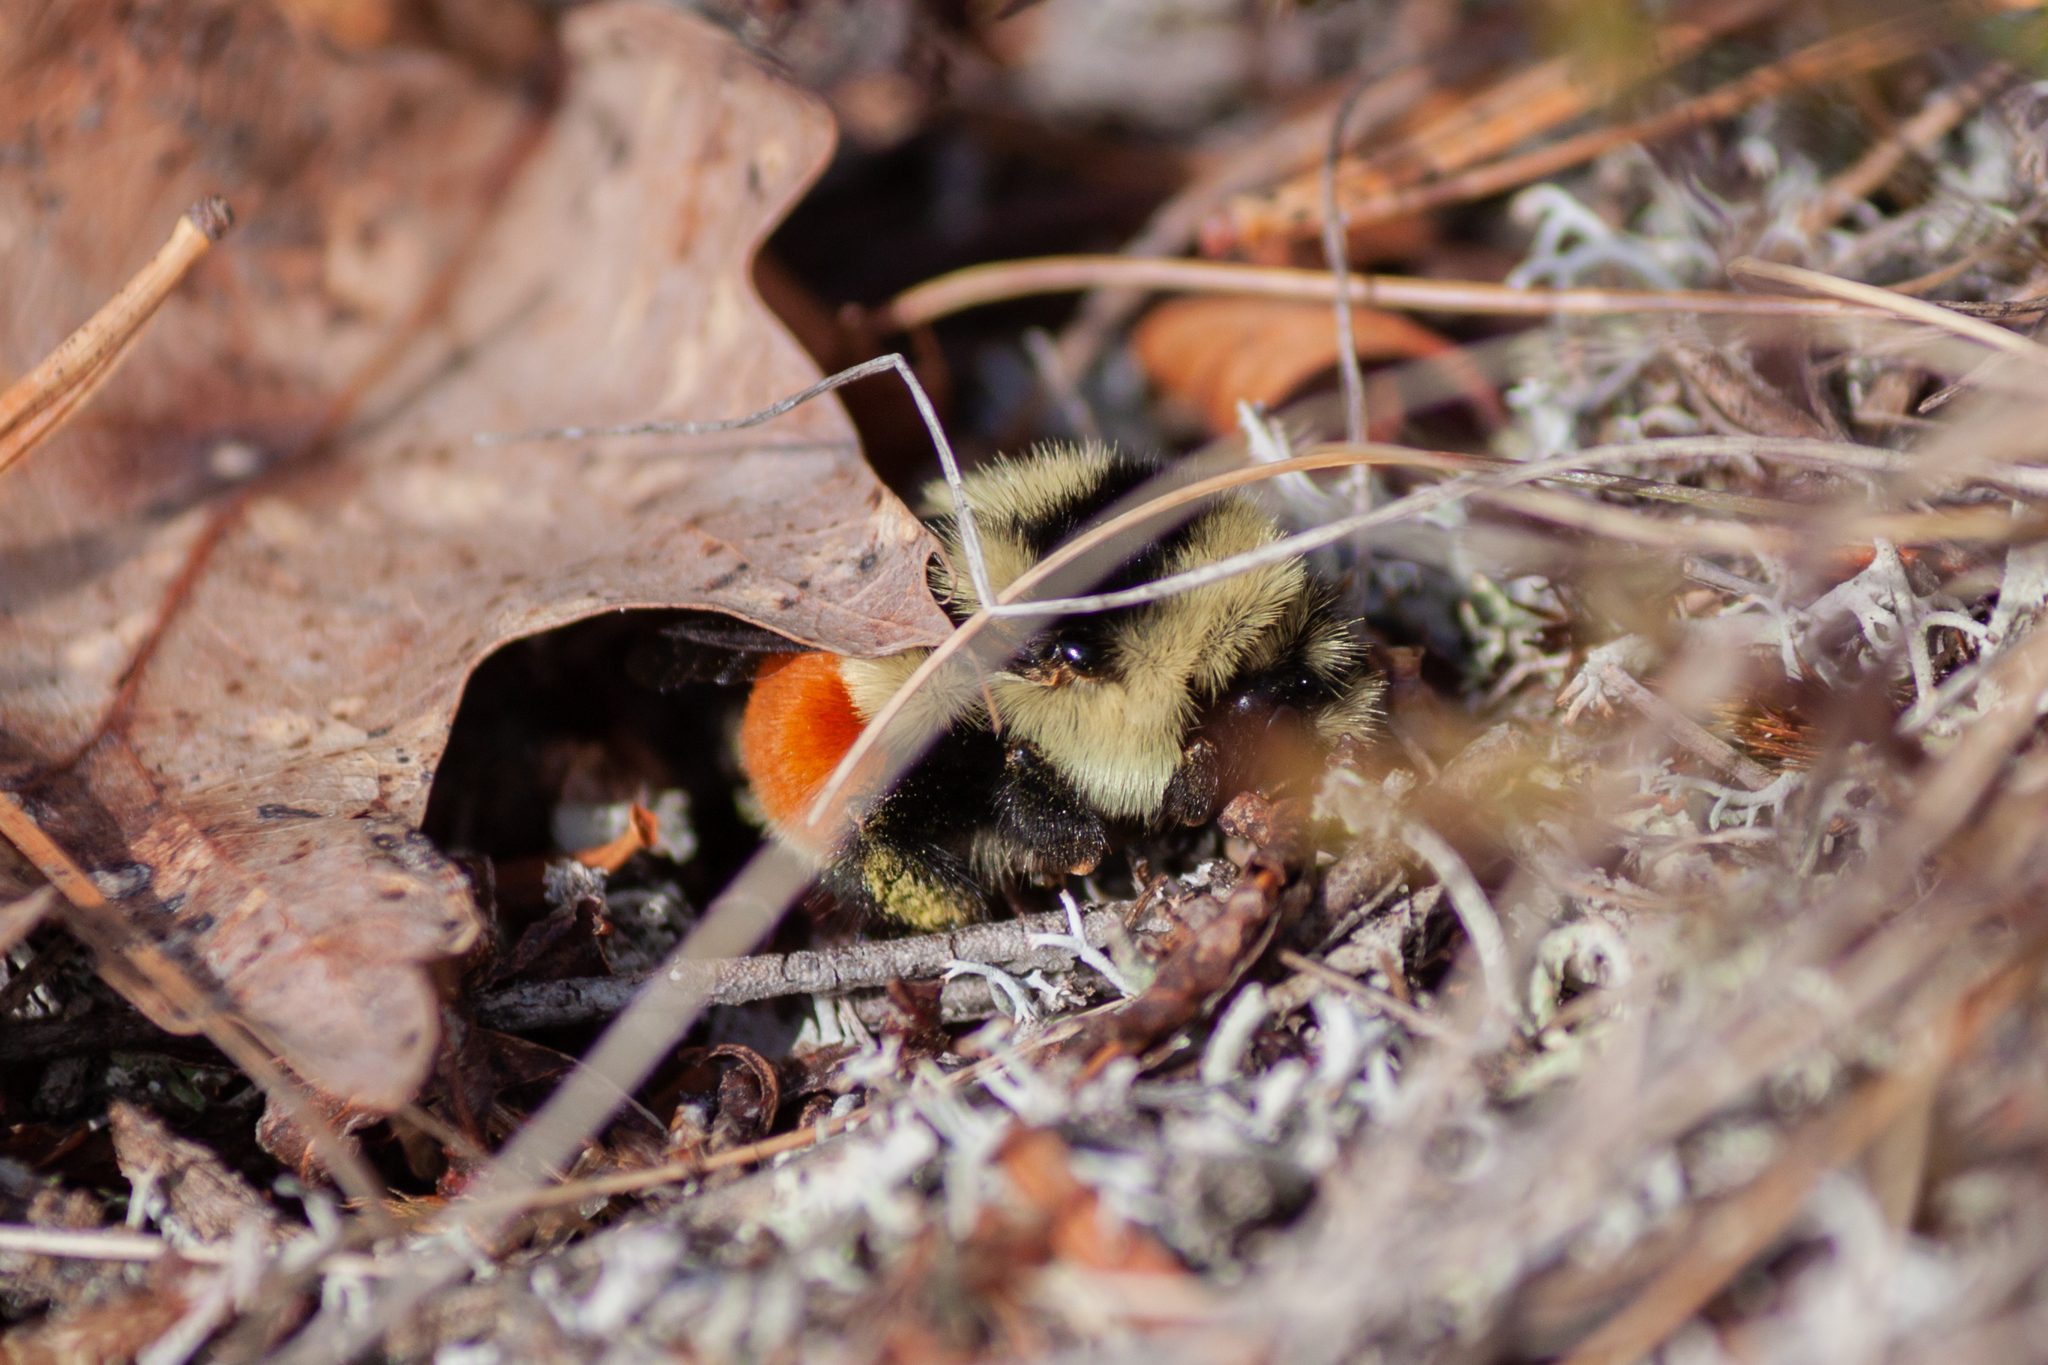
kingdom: Animalia
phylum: Arthropoda
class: Insecta
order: Hymenoptera
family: Apidae
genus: Bombus
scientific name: Bombus ternarius
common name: Tri-colored bumble bee
